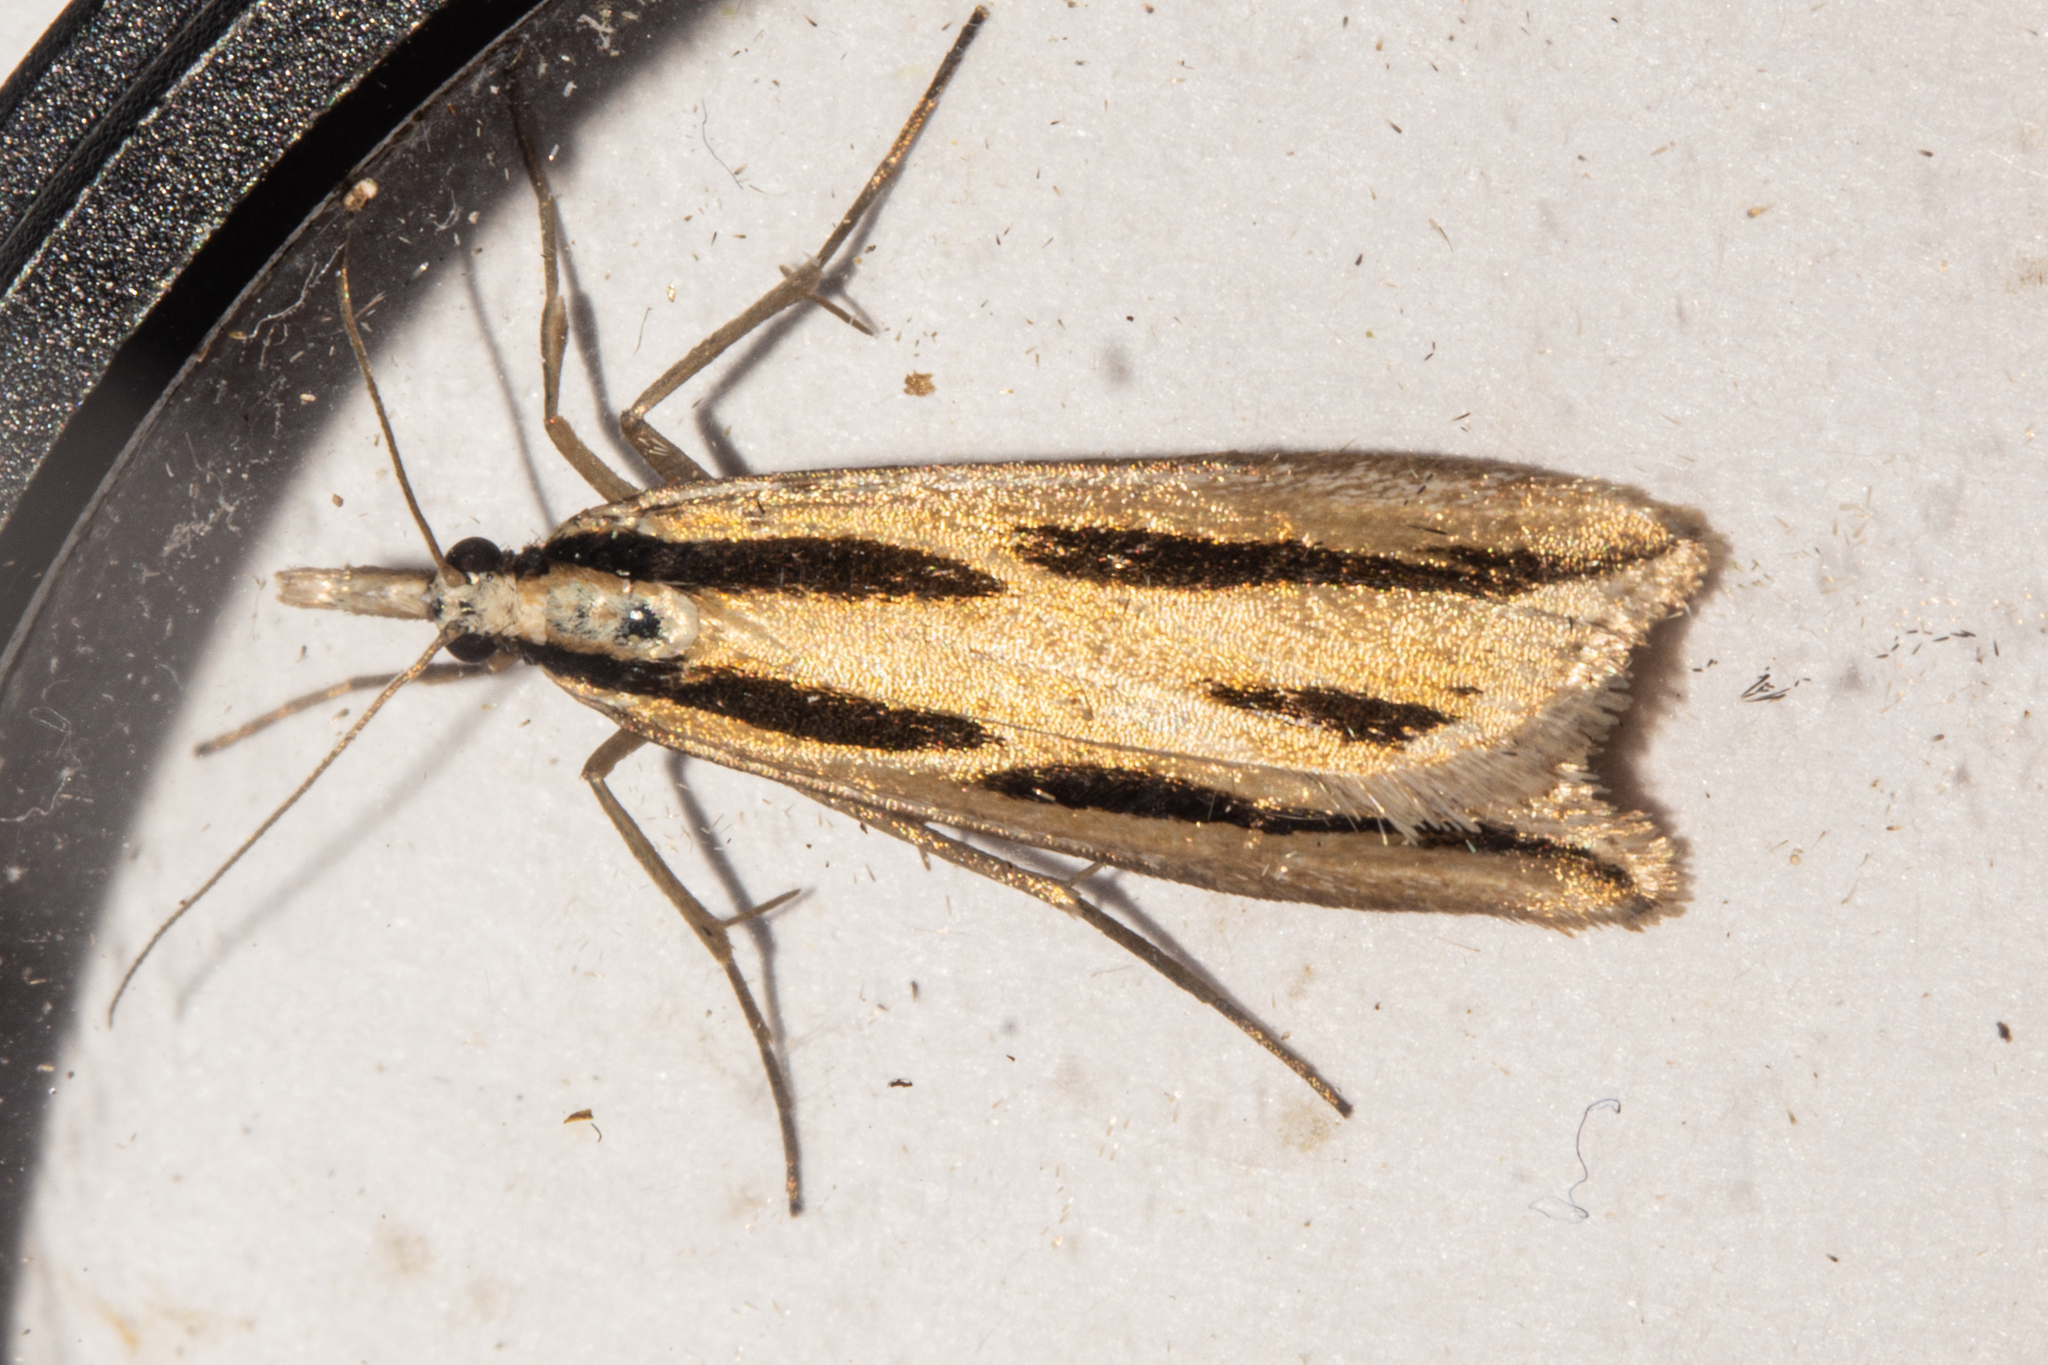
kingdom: Animalia
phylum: Arthropoda
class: Insecta
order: Lepidoptera
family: Crambidae
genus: Eudonia
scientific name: Eudonia trivirgata
